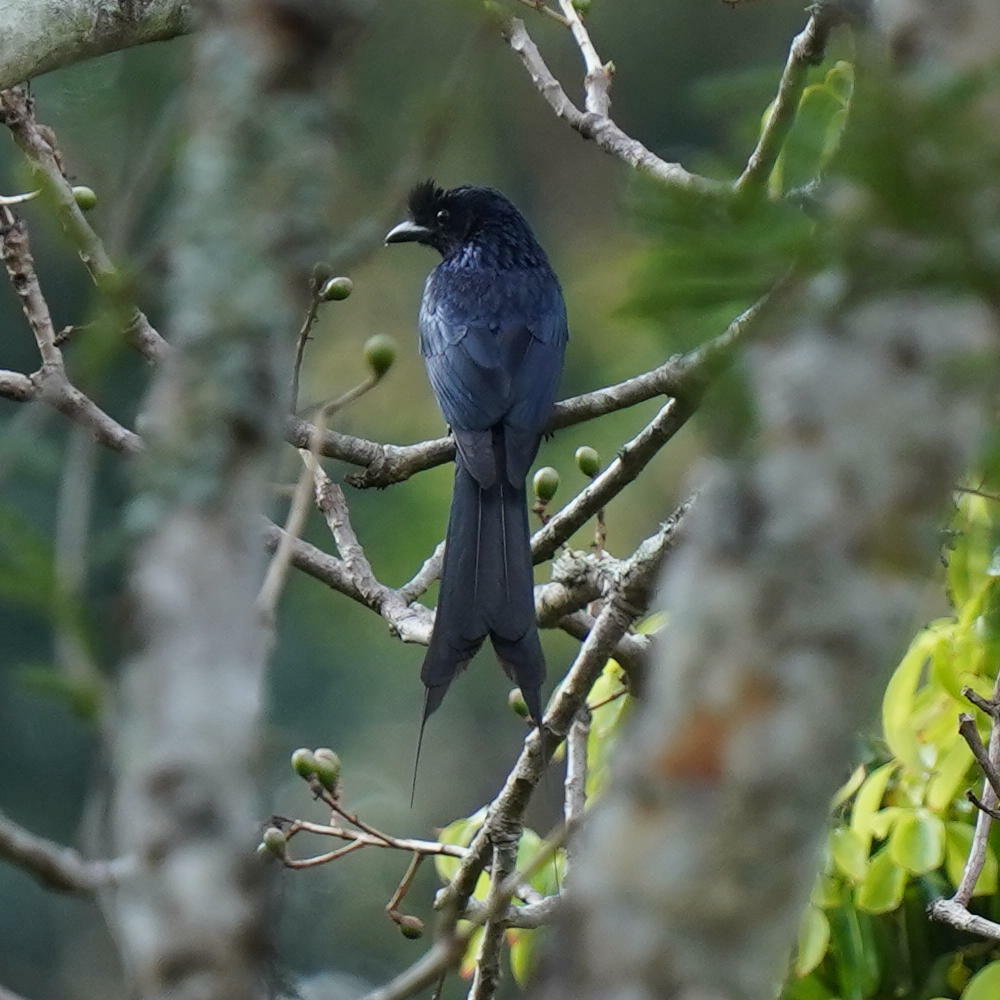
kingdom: Animalia
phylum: Chordata
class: Aves
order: Passeriformes
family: Dicruridae
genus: Dicrurus
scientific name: Dicrurus paradiseus
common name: Greater racket-tailed drongo
